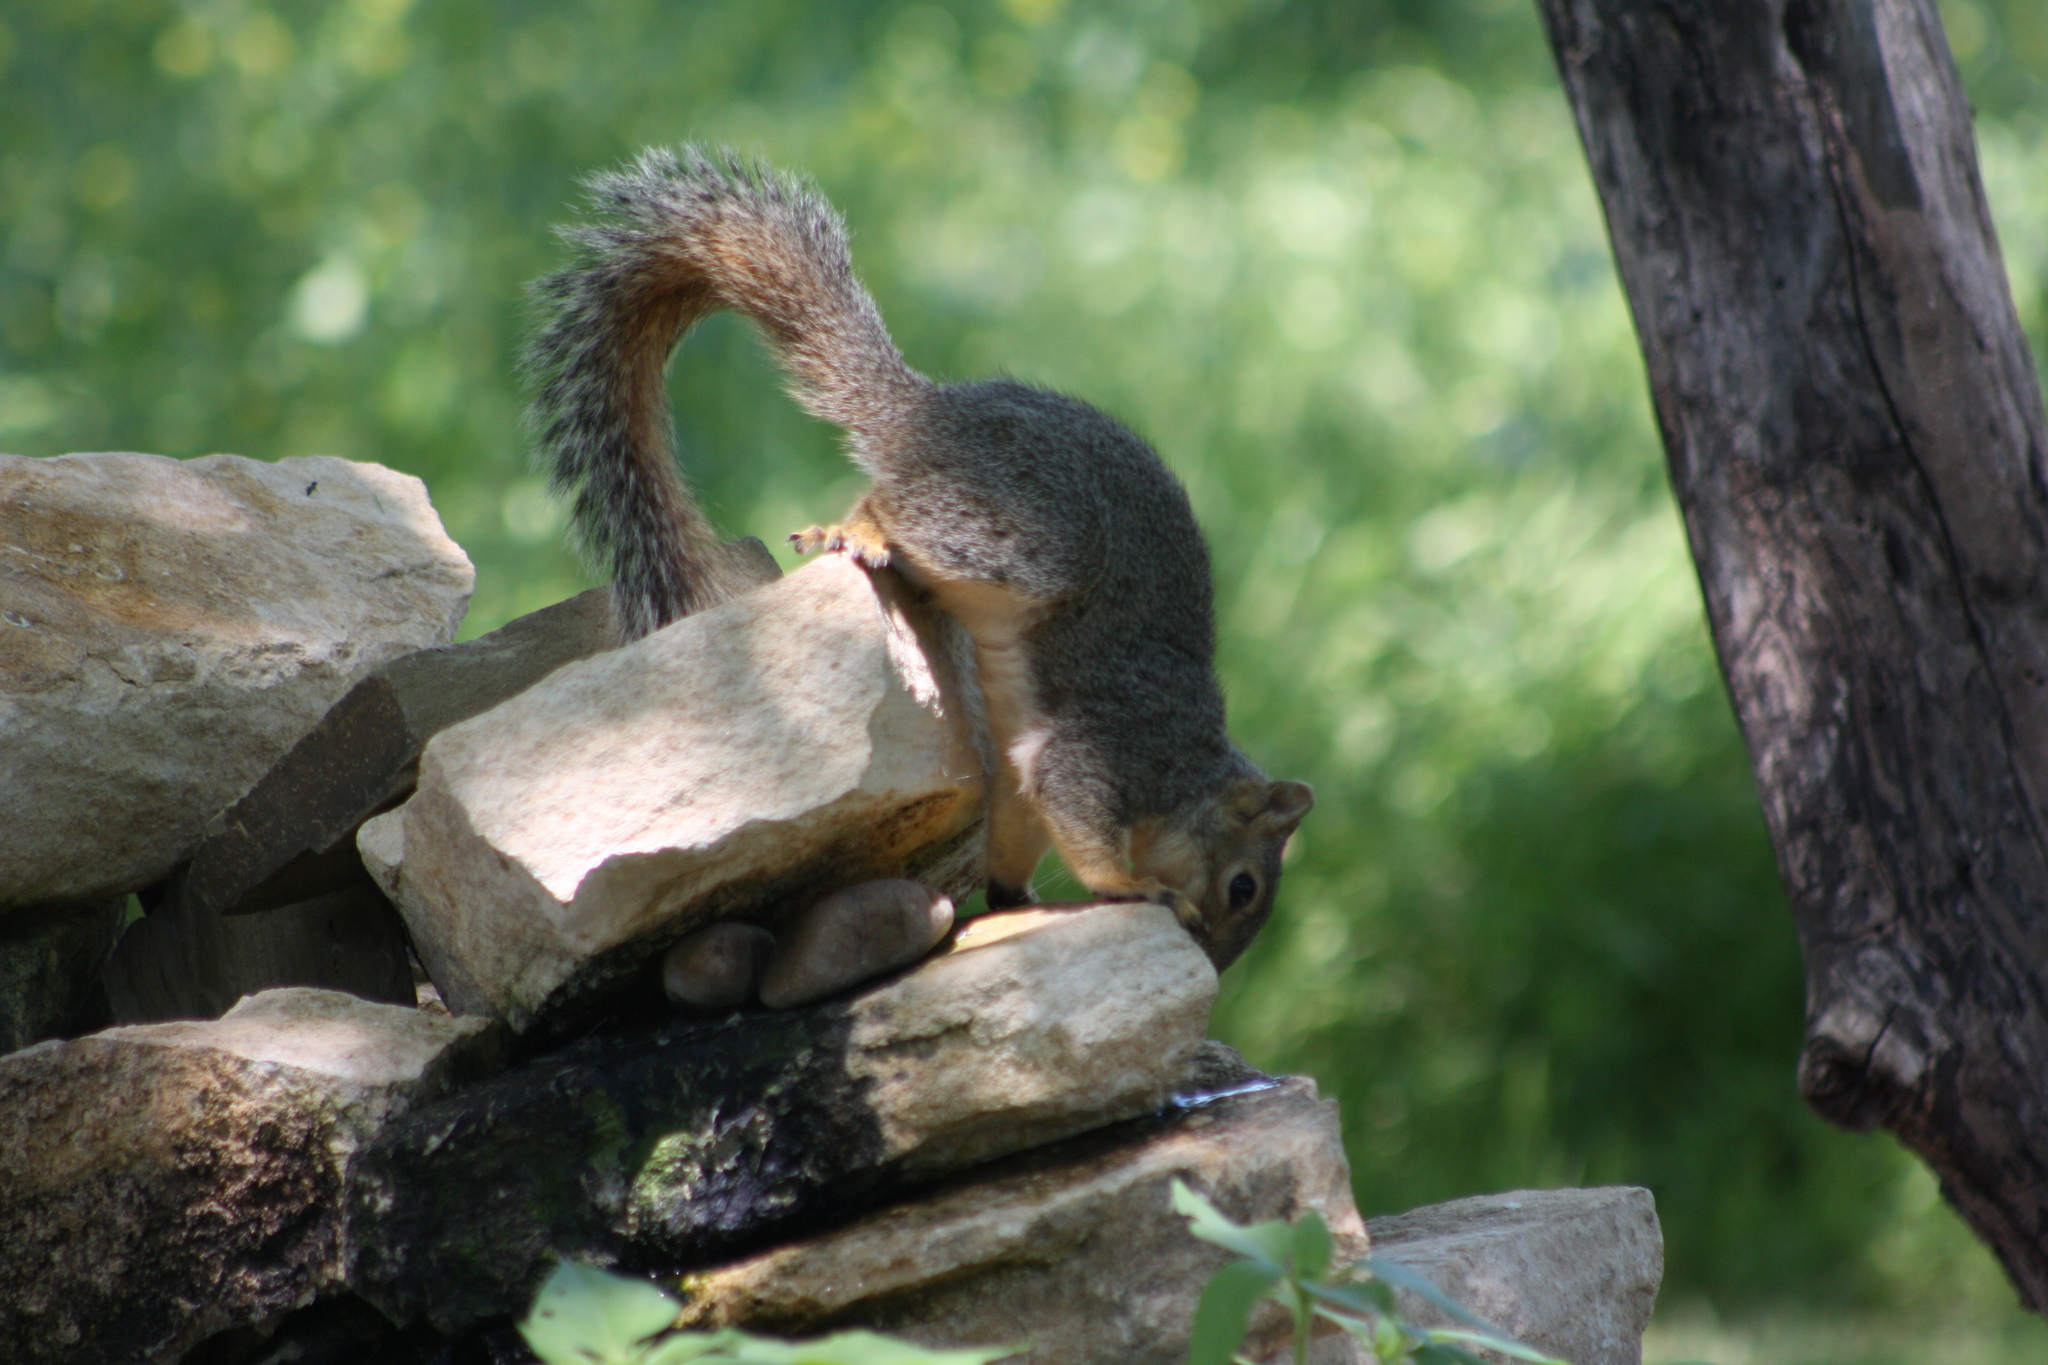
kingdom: Animalia
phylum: Chordata
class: Mammalia
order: Rodentia
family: Sciuridae
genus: Sciurus
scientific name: Sciurus niger
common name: Fox squirrel
